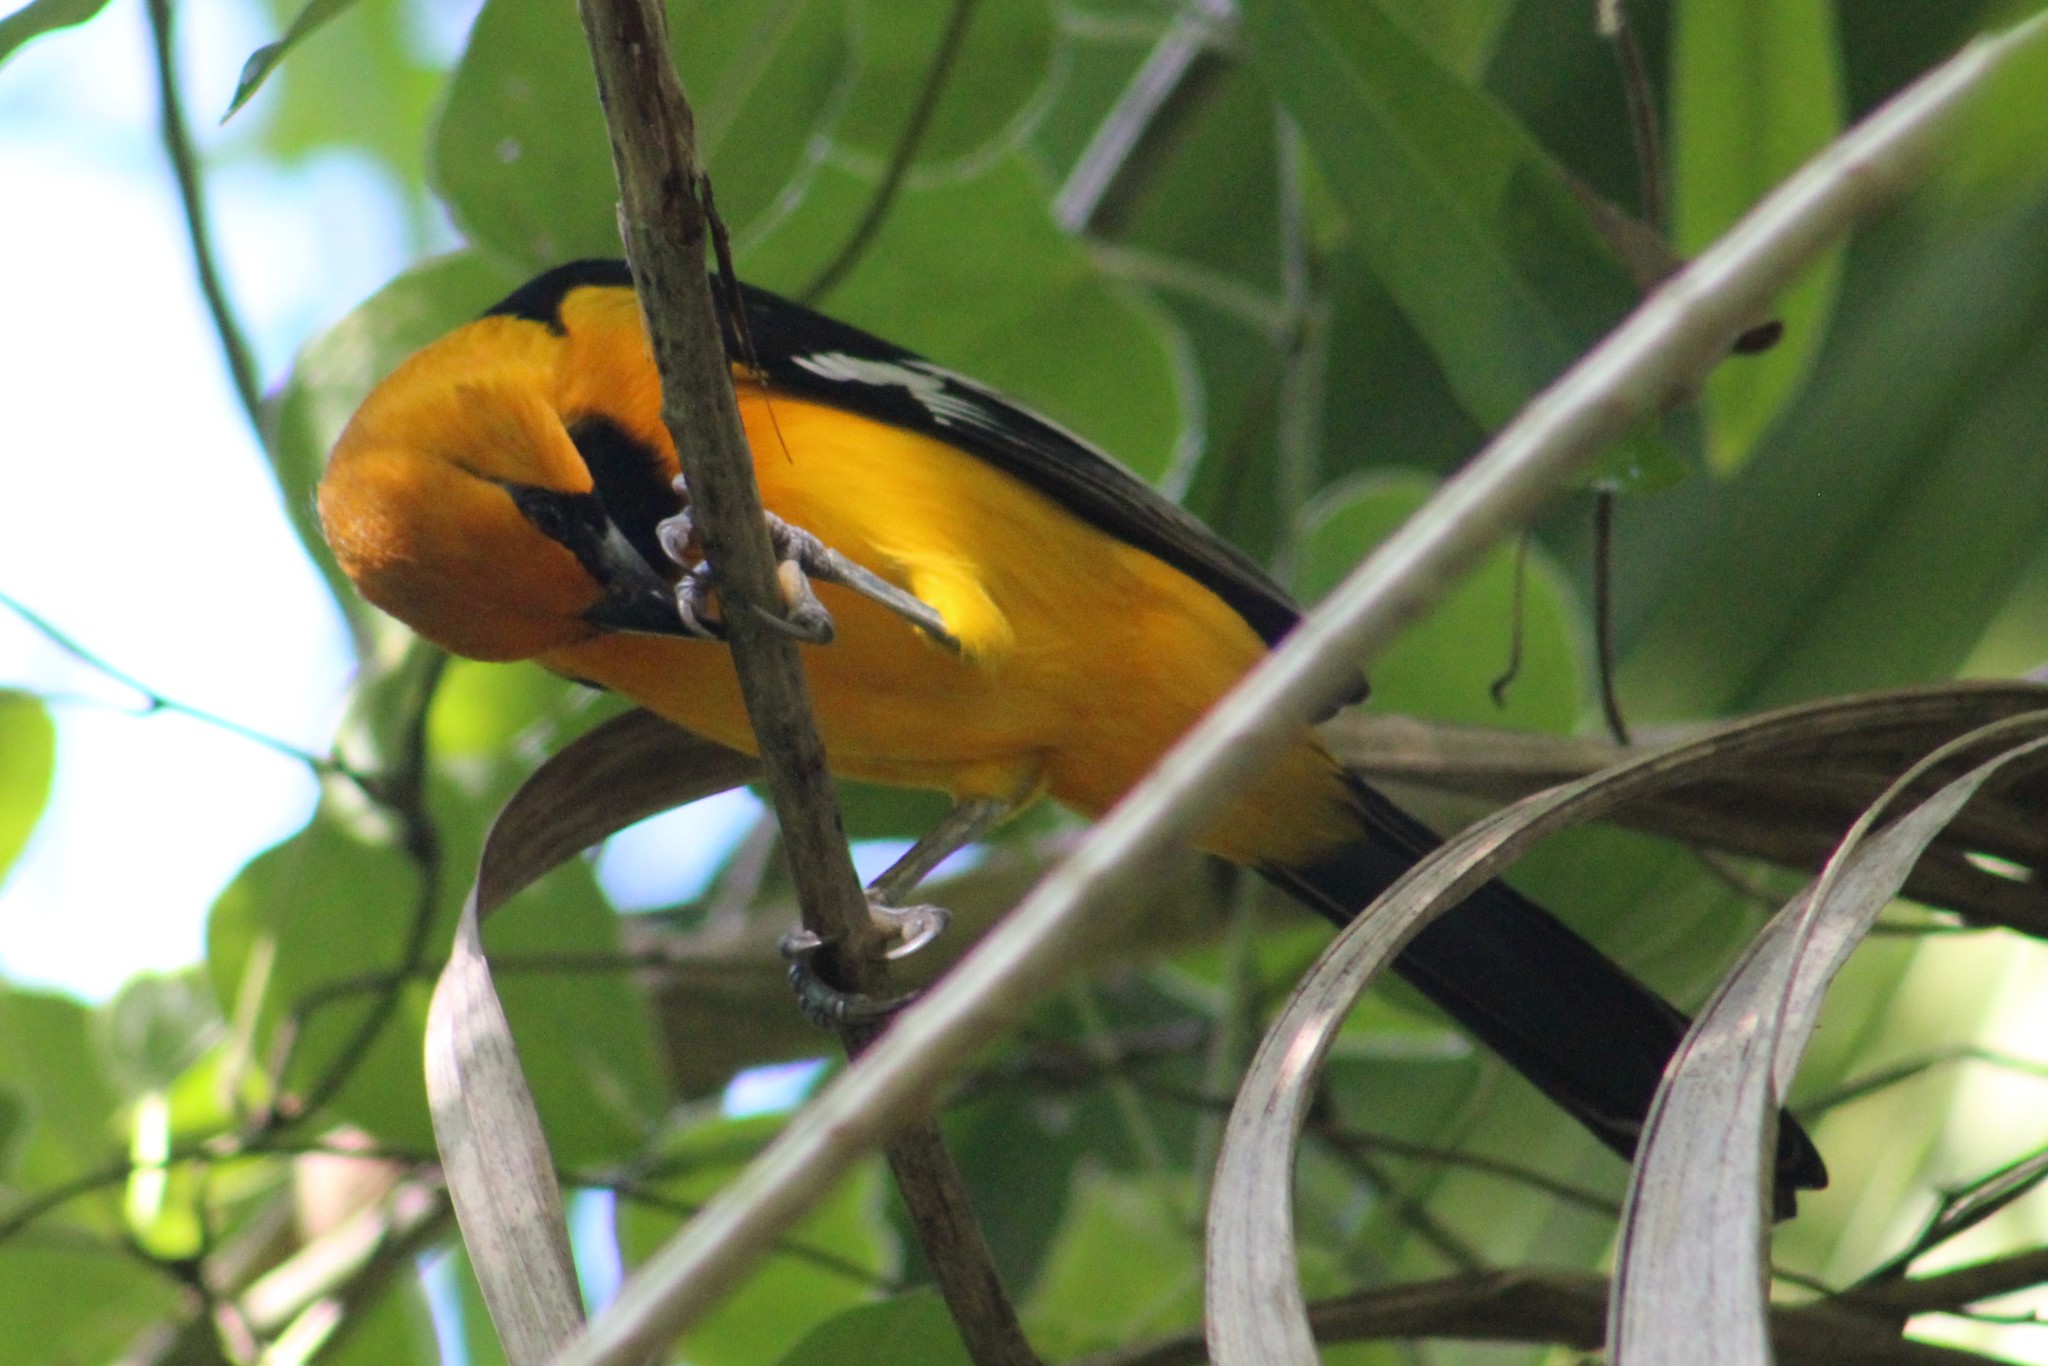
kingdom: Animalia
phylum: Chordata
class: Aves
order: Passeriformes
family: Icteridae
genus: Icterus
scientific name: Icterus gularis
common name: Altamira oriole
